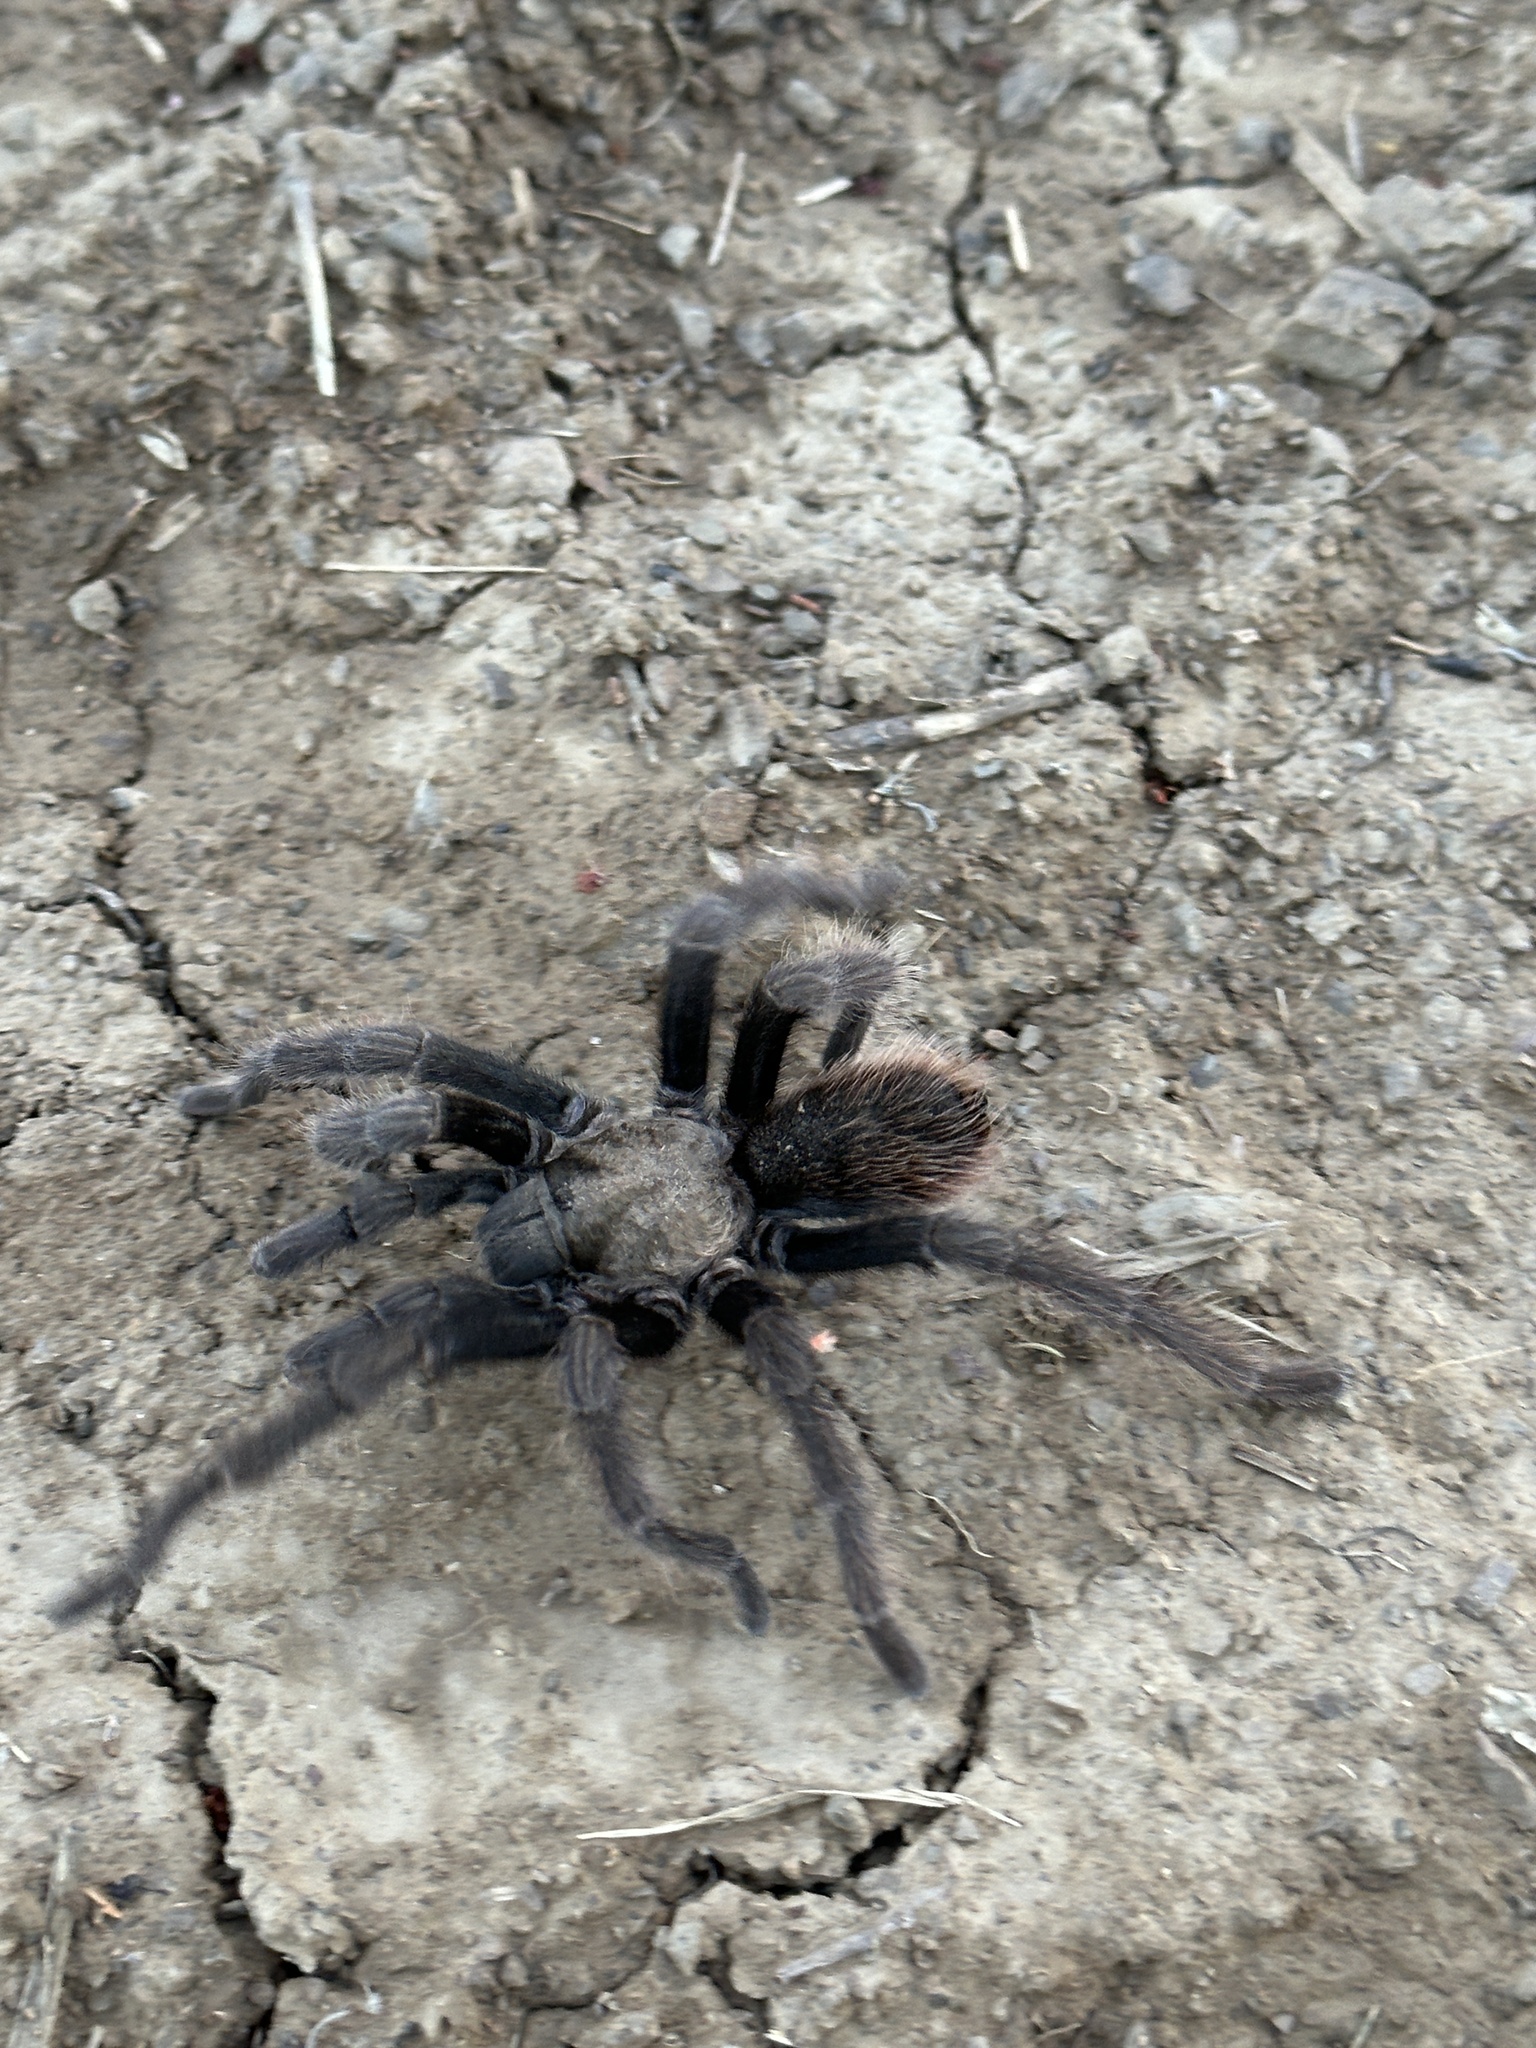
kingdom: Animalia
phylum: Arthropoda
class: Arachnida
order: Araneae
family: Theraphosidae
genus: Aphonopelma
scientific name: Aphonopelma eutylenum
